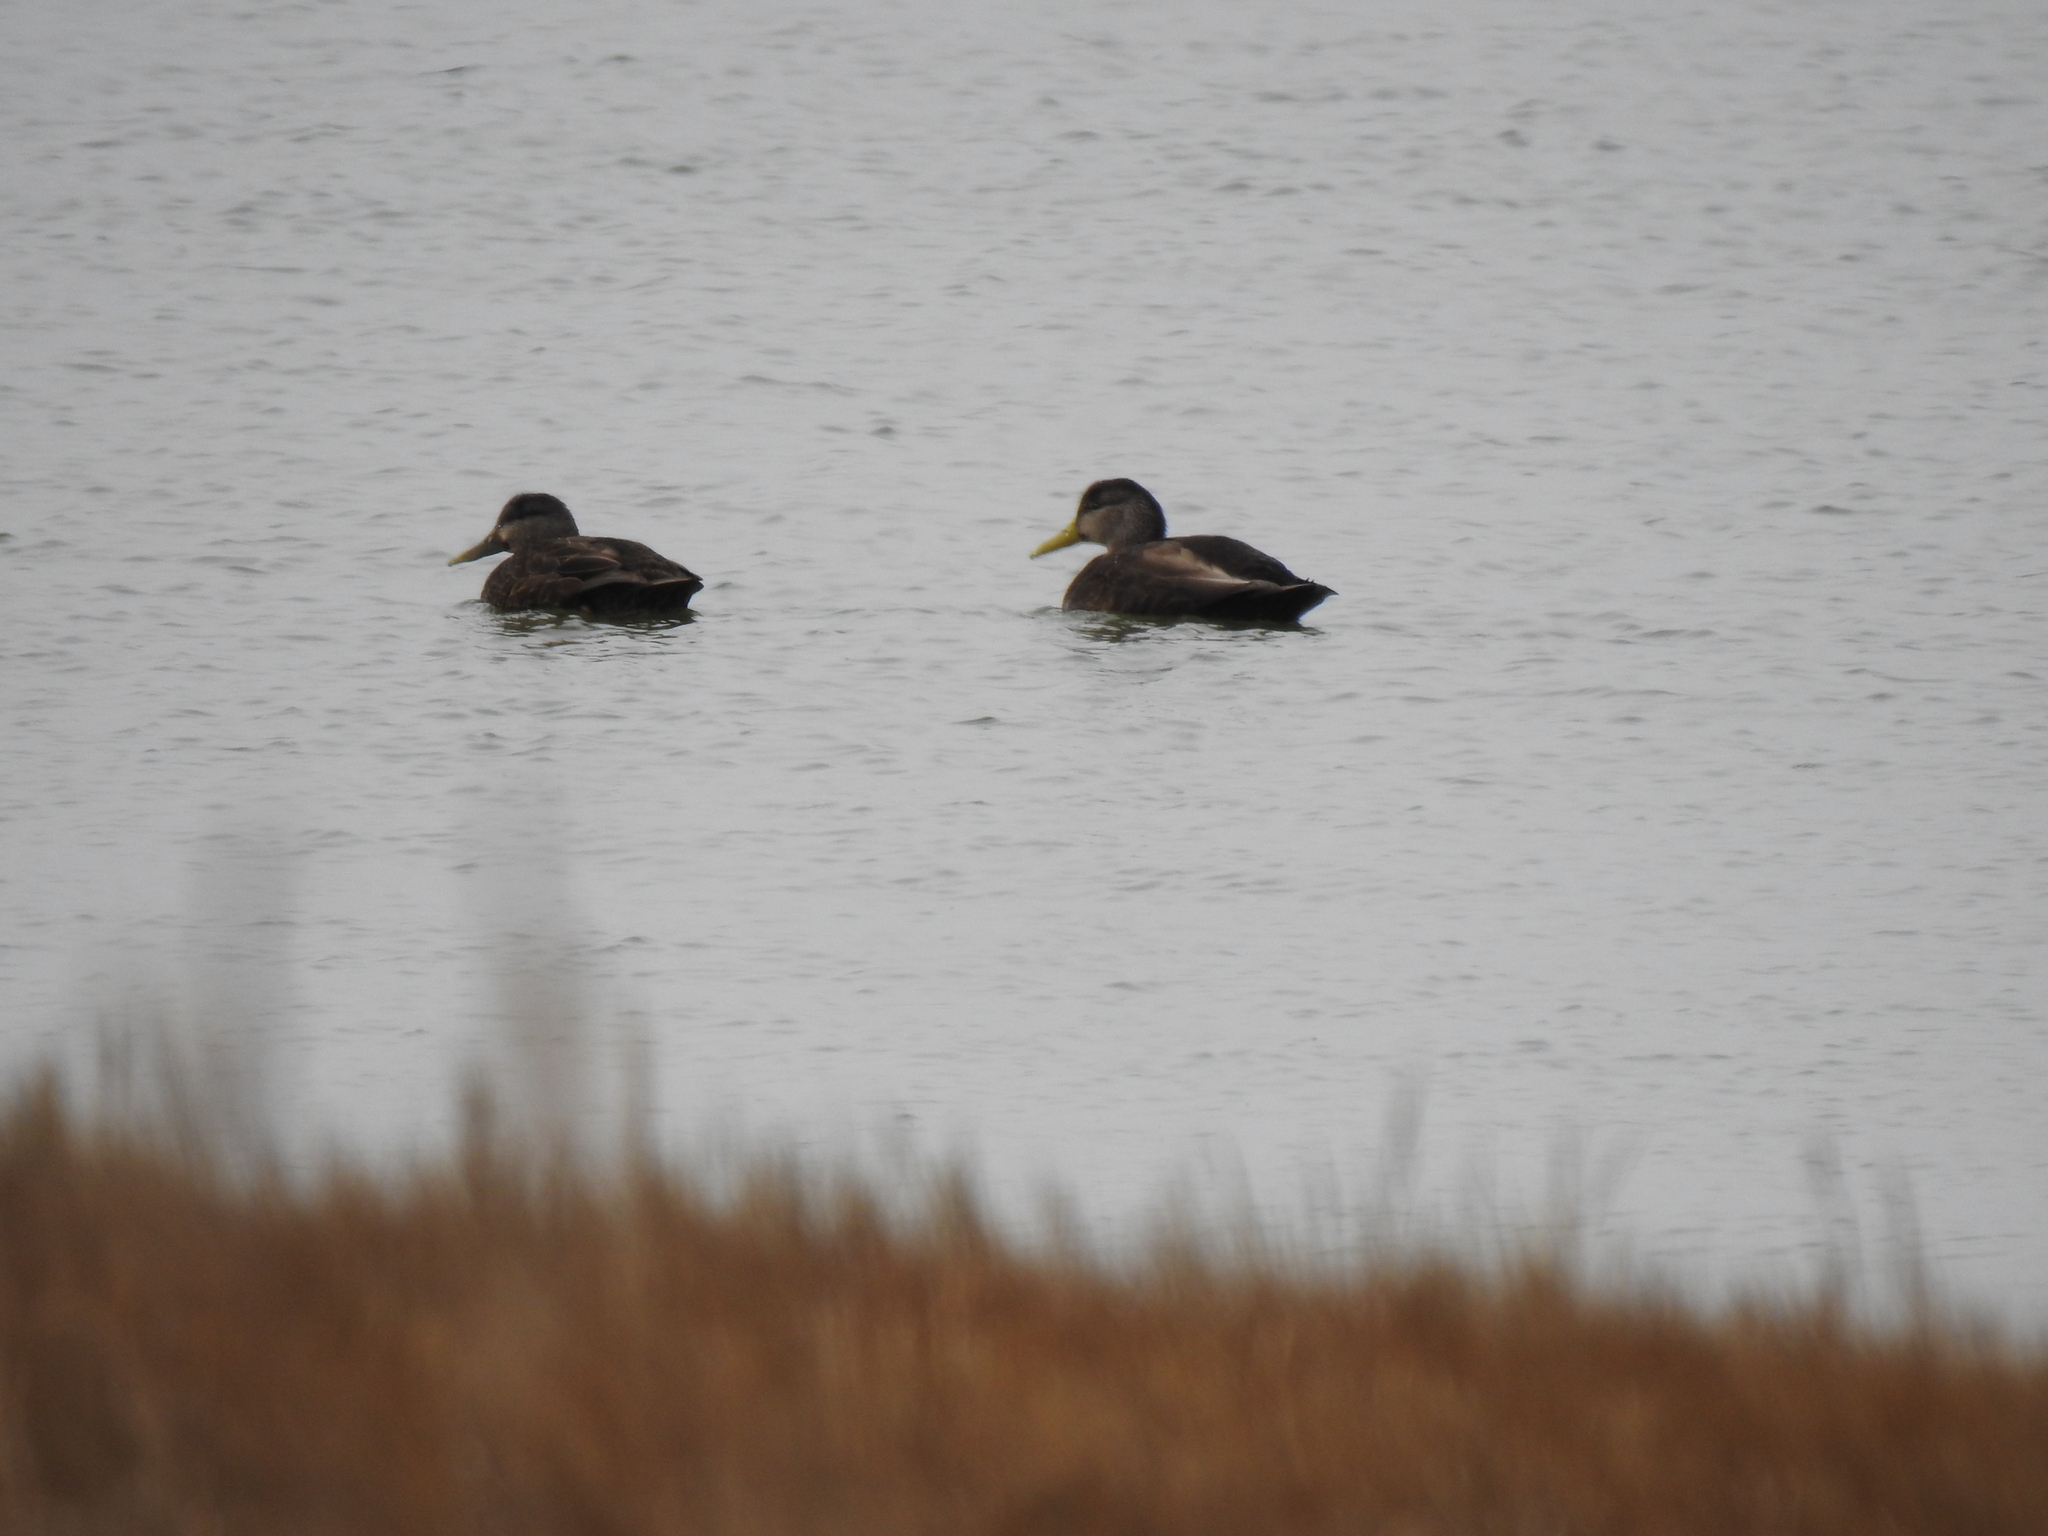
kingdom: Animalia
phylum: Chordata
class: Aves
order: Anseriformes
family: Anatidae
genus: Anas
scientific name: Anas rubripes
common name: American black duck
